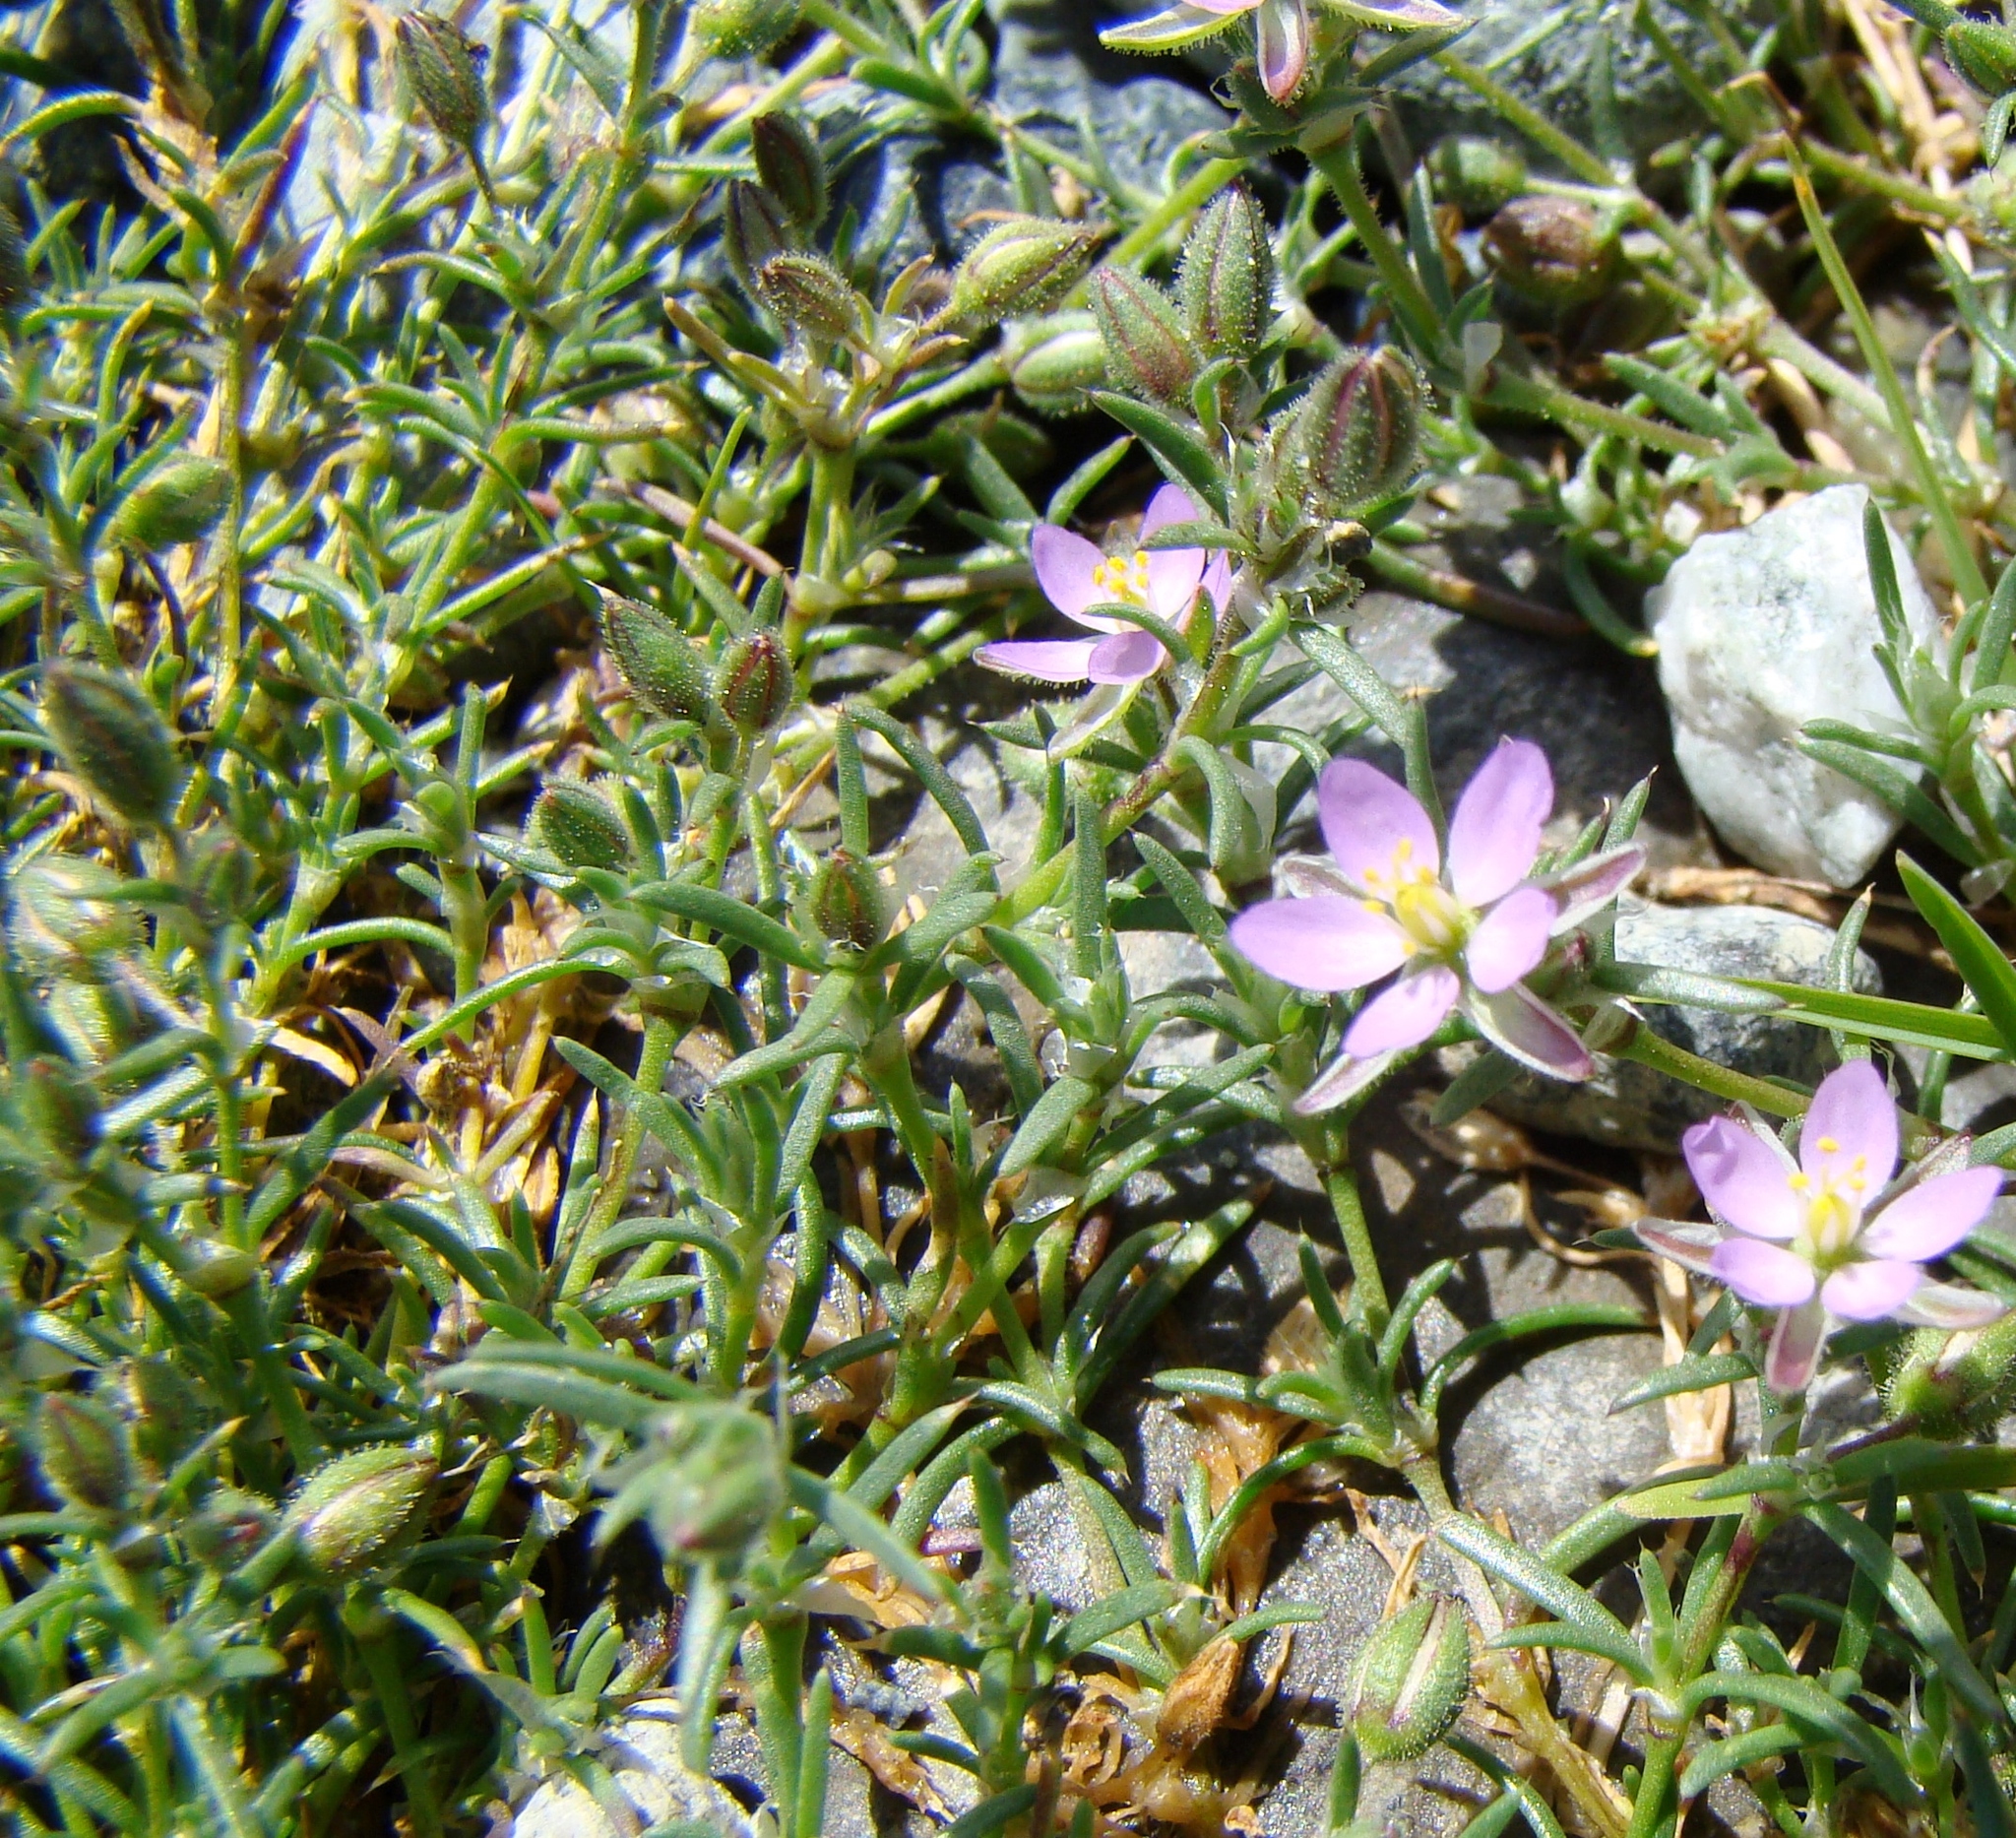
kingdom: Plantae
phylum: Tracheophyta
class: Magnoliopsida
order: Caryophyllales
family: Caryophyllaceae
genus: Spergularia
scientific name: Spergularia rubra
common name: Red sand-spurrey
